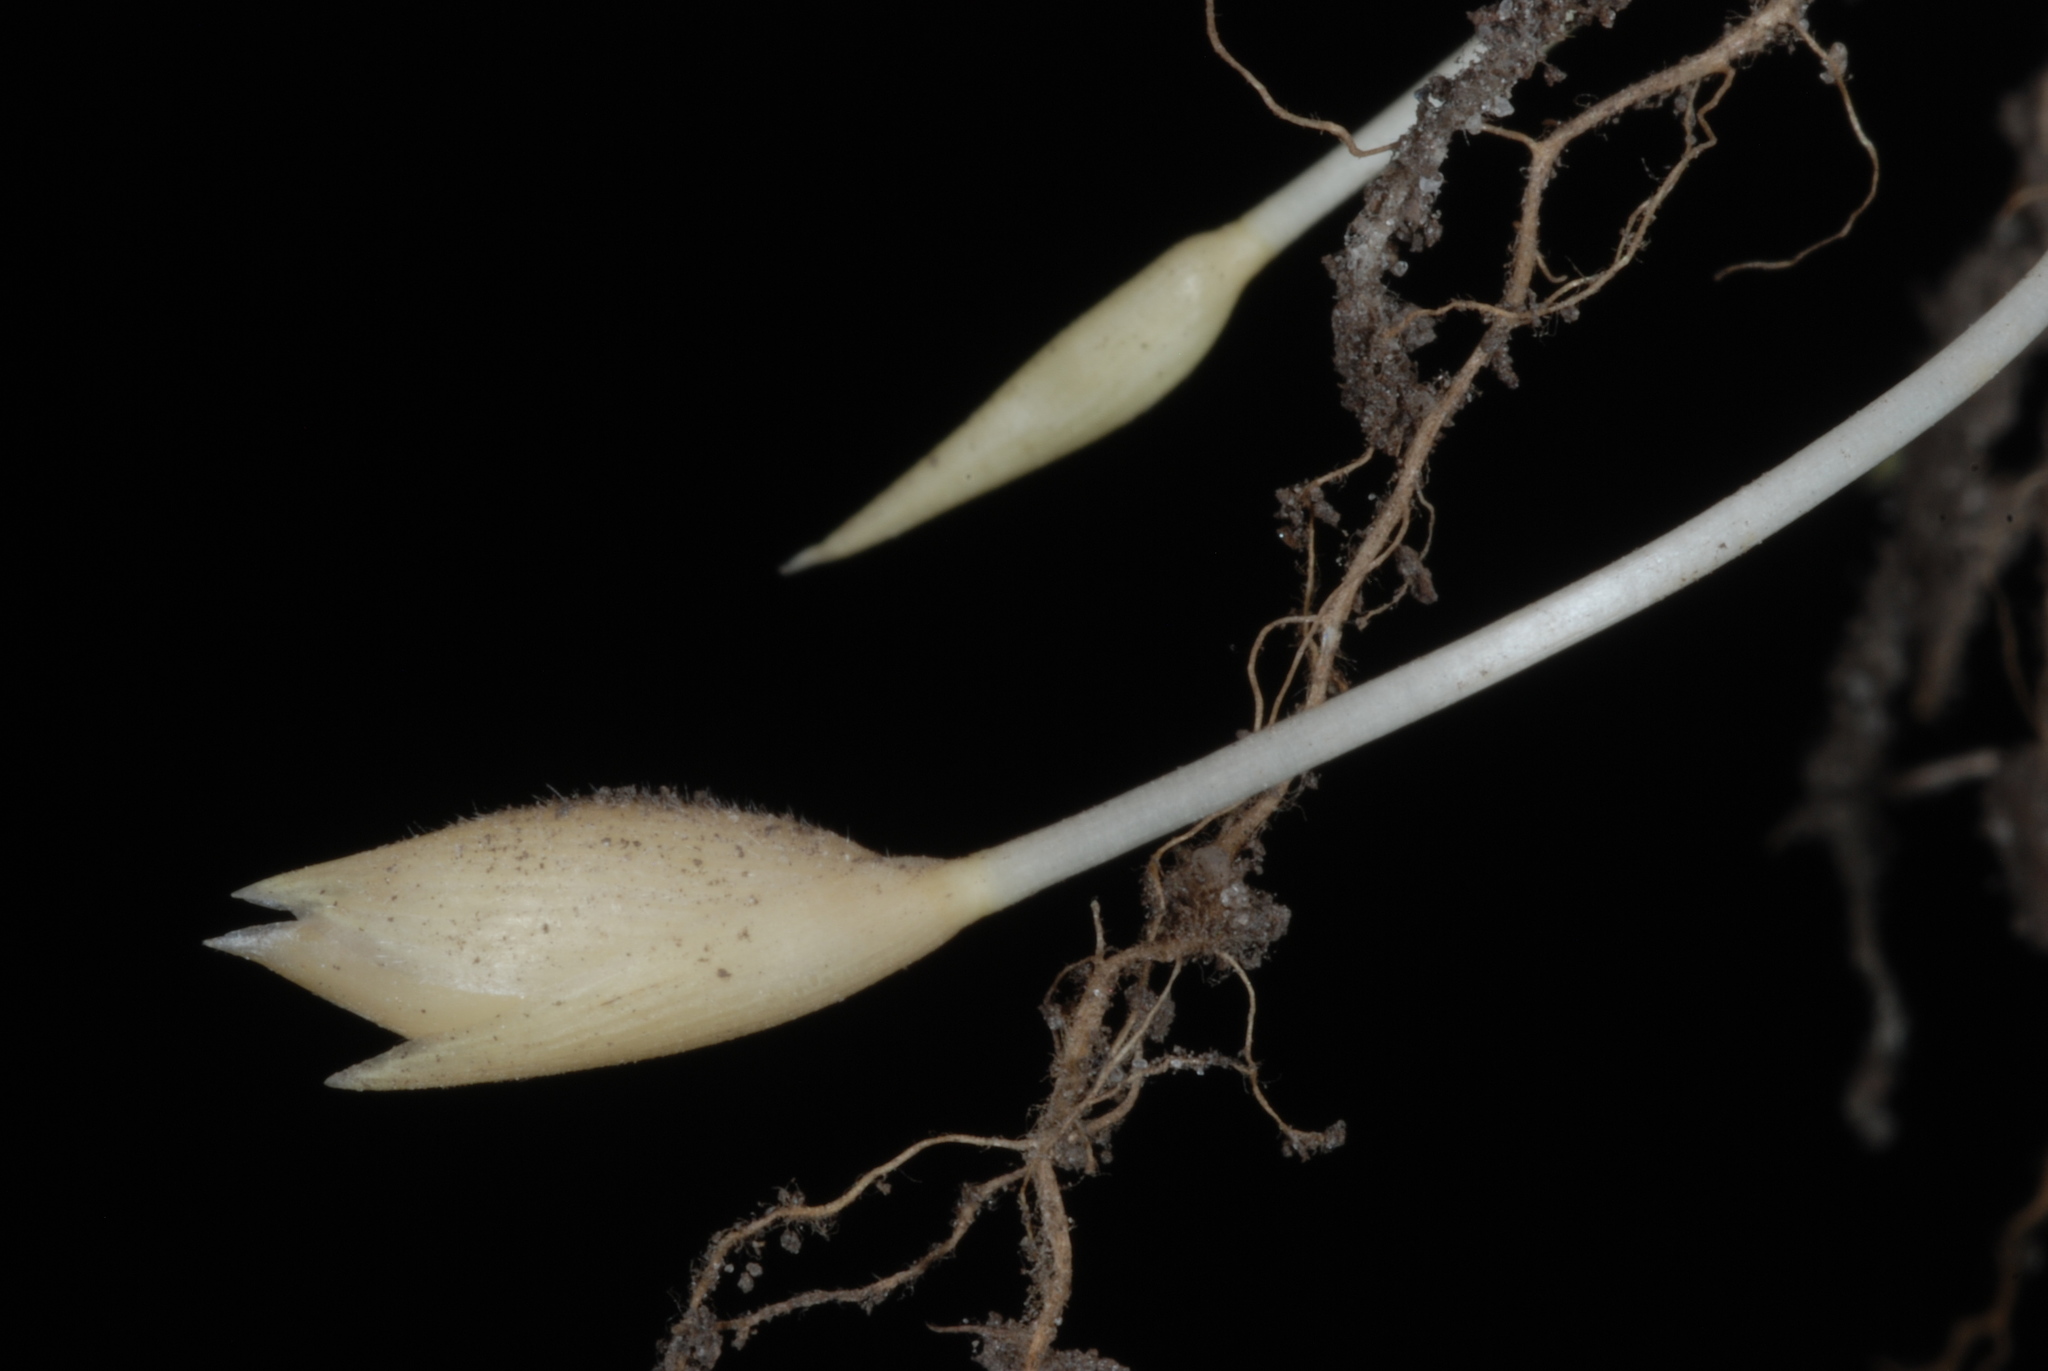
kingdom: Plantae
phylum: Tracheophyta
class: Liliopsida
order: Poales
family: Poaceae
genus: Amphicarpum
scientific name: Amphicarpum amphicarpon
